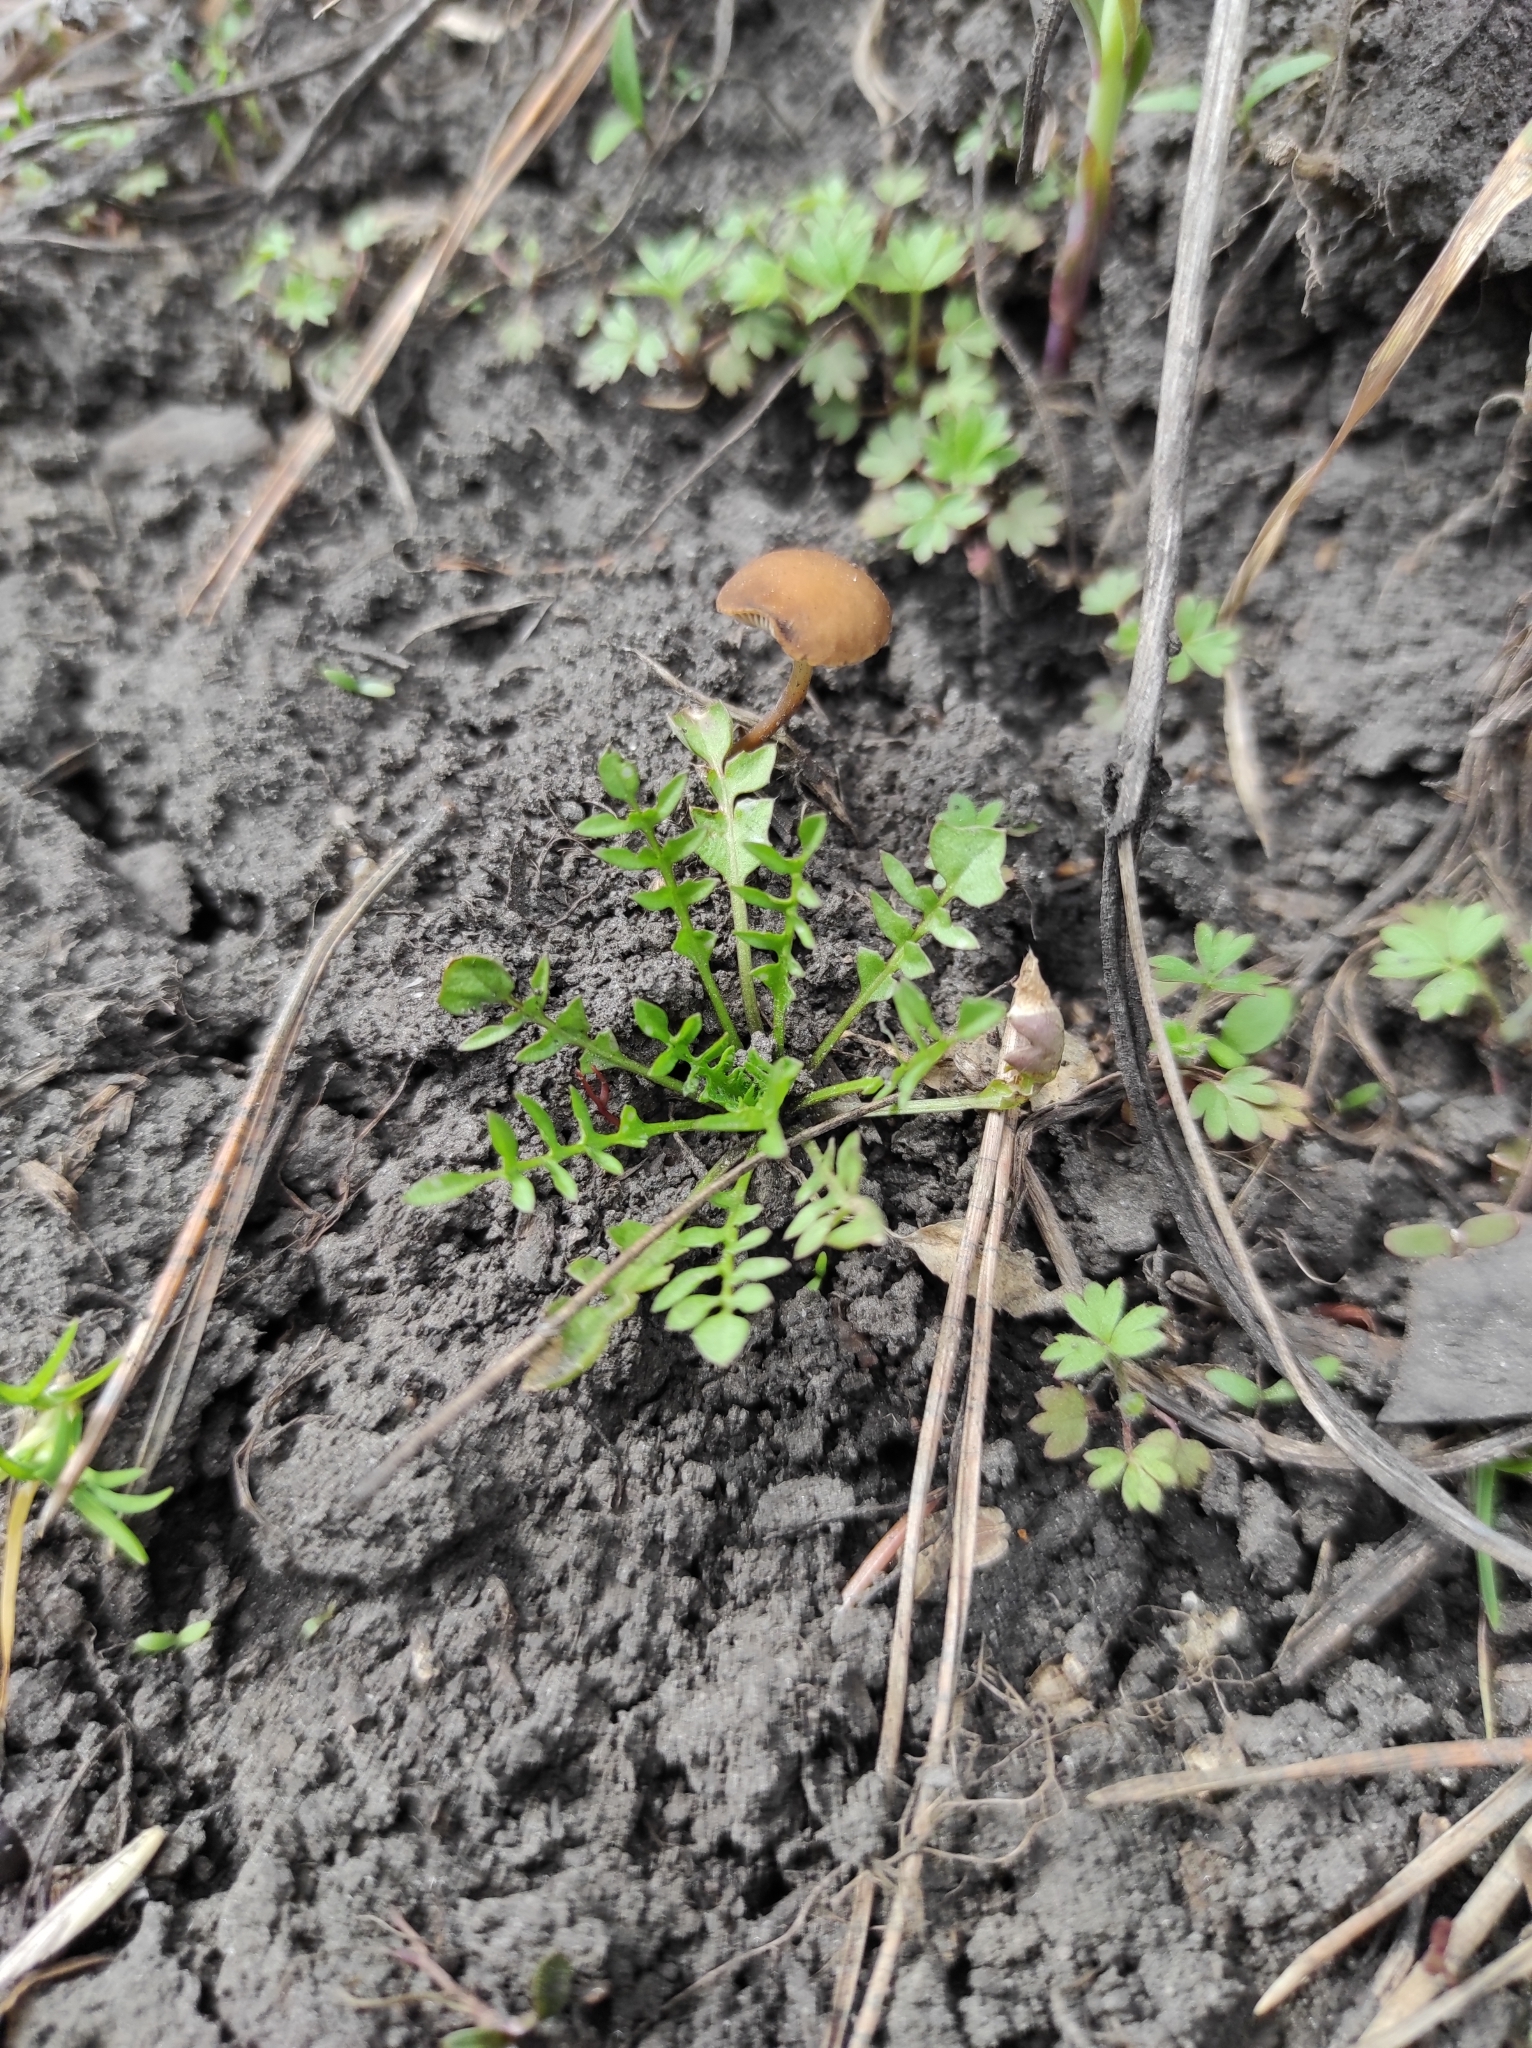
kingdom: Plantae
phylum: Tracheophyta
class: Magnoliopsida
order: Brassicales
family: Brassicaceae
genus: Capsella
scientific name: Capsella bursa-pastoris
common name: Shepherd's purse
